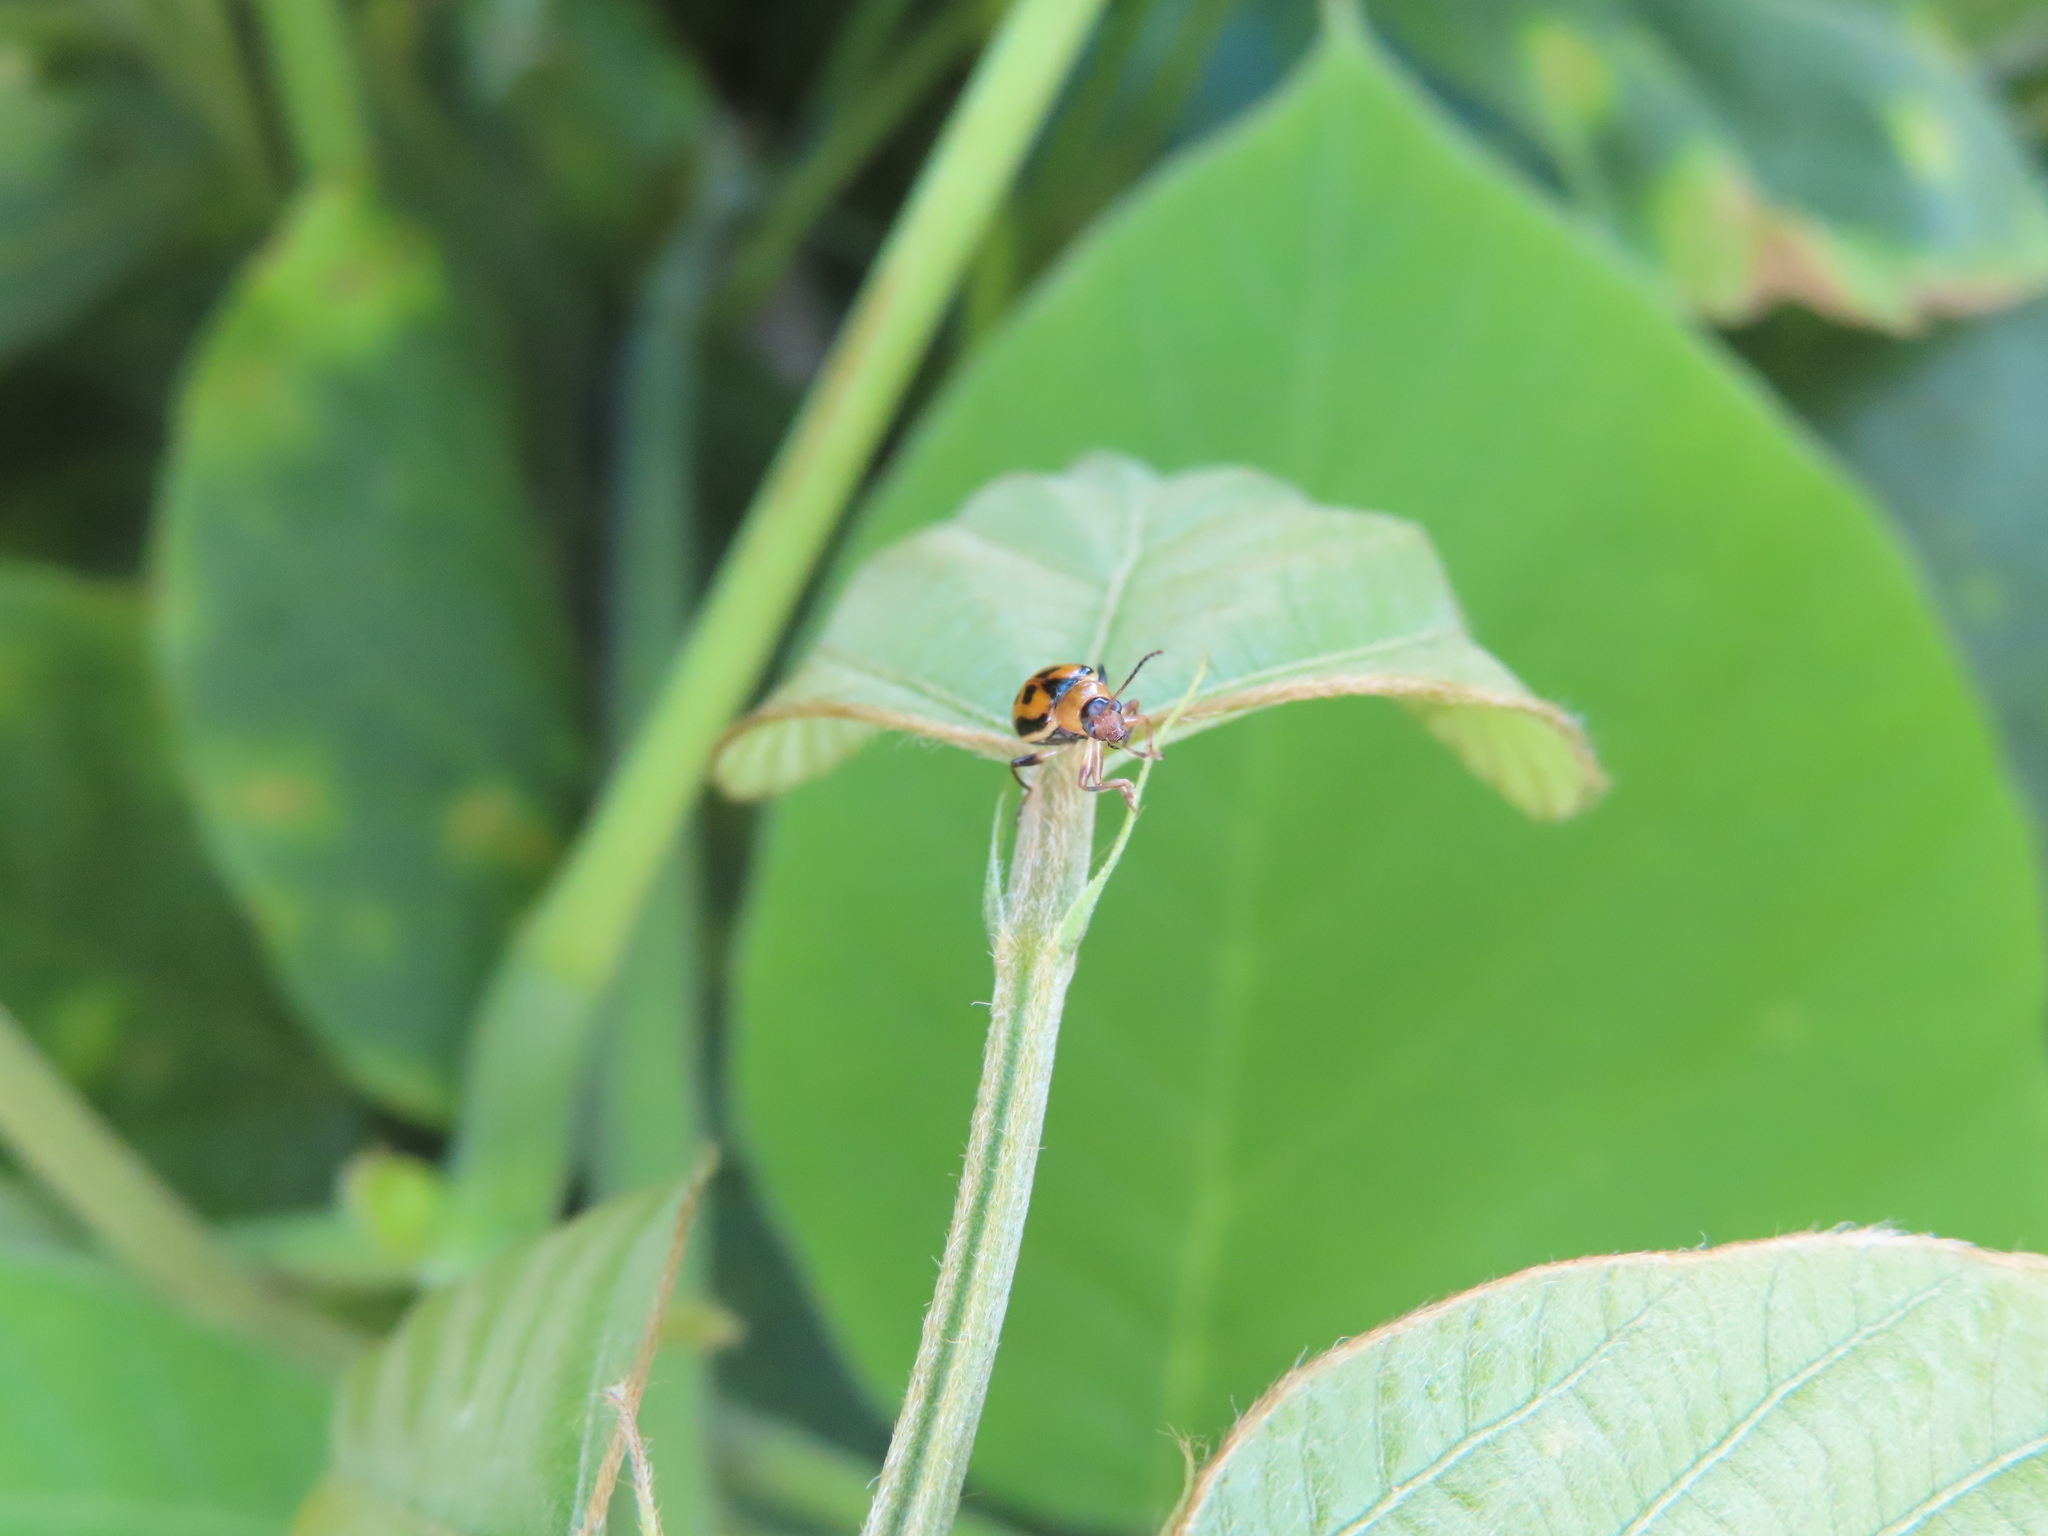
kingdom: Animalia
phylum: Arthropoda
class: Insecta
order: Coleoptera
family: Chrysomelidae
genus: Cerotoma
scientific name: Cerotoma trifurcata
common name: Bean leaf beetle
